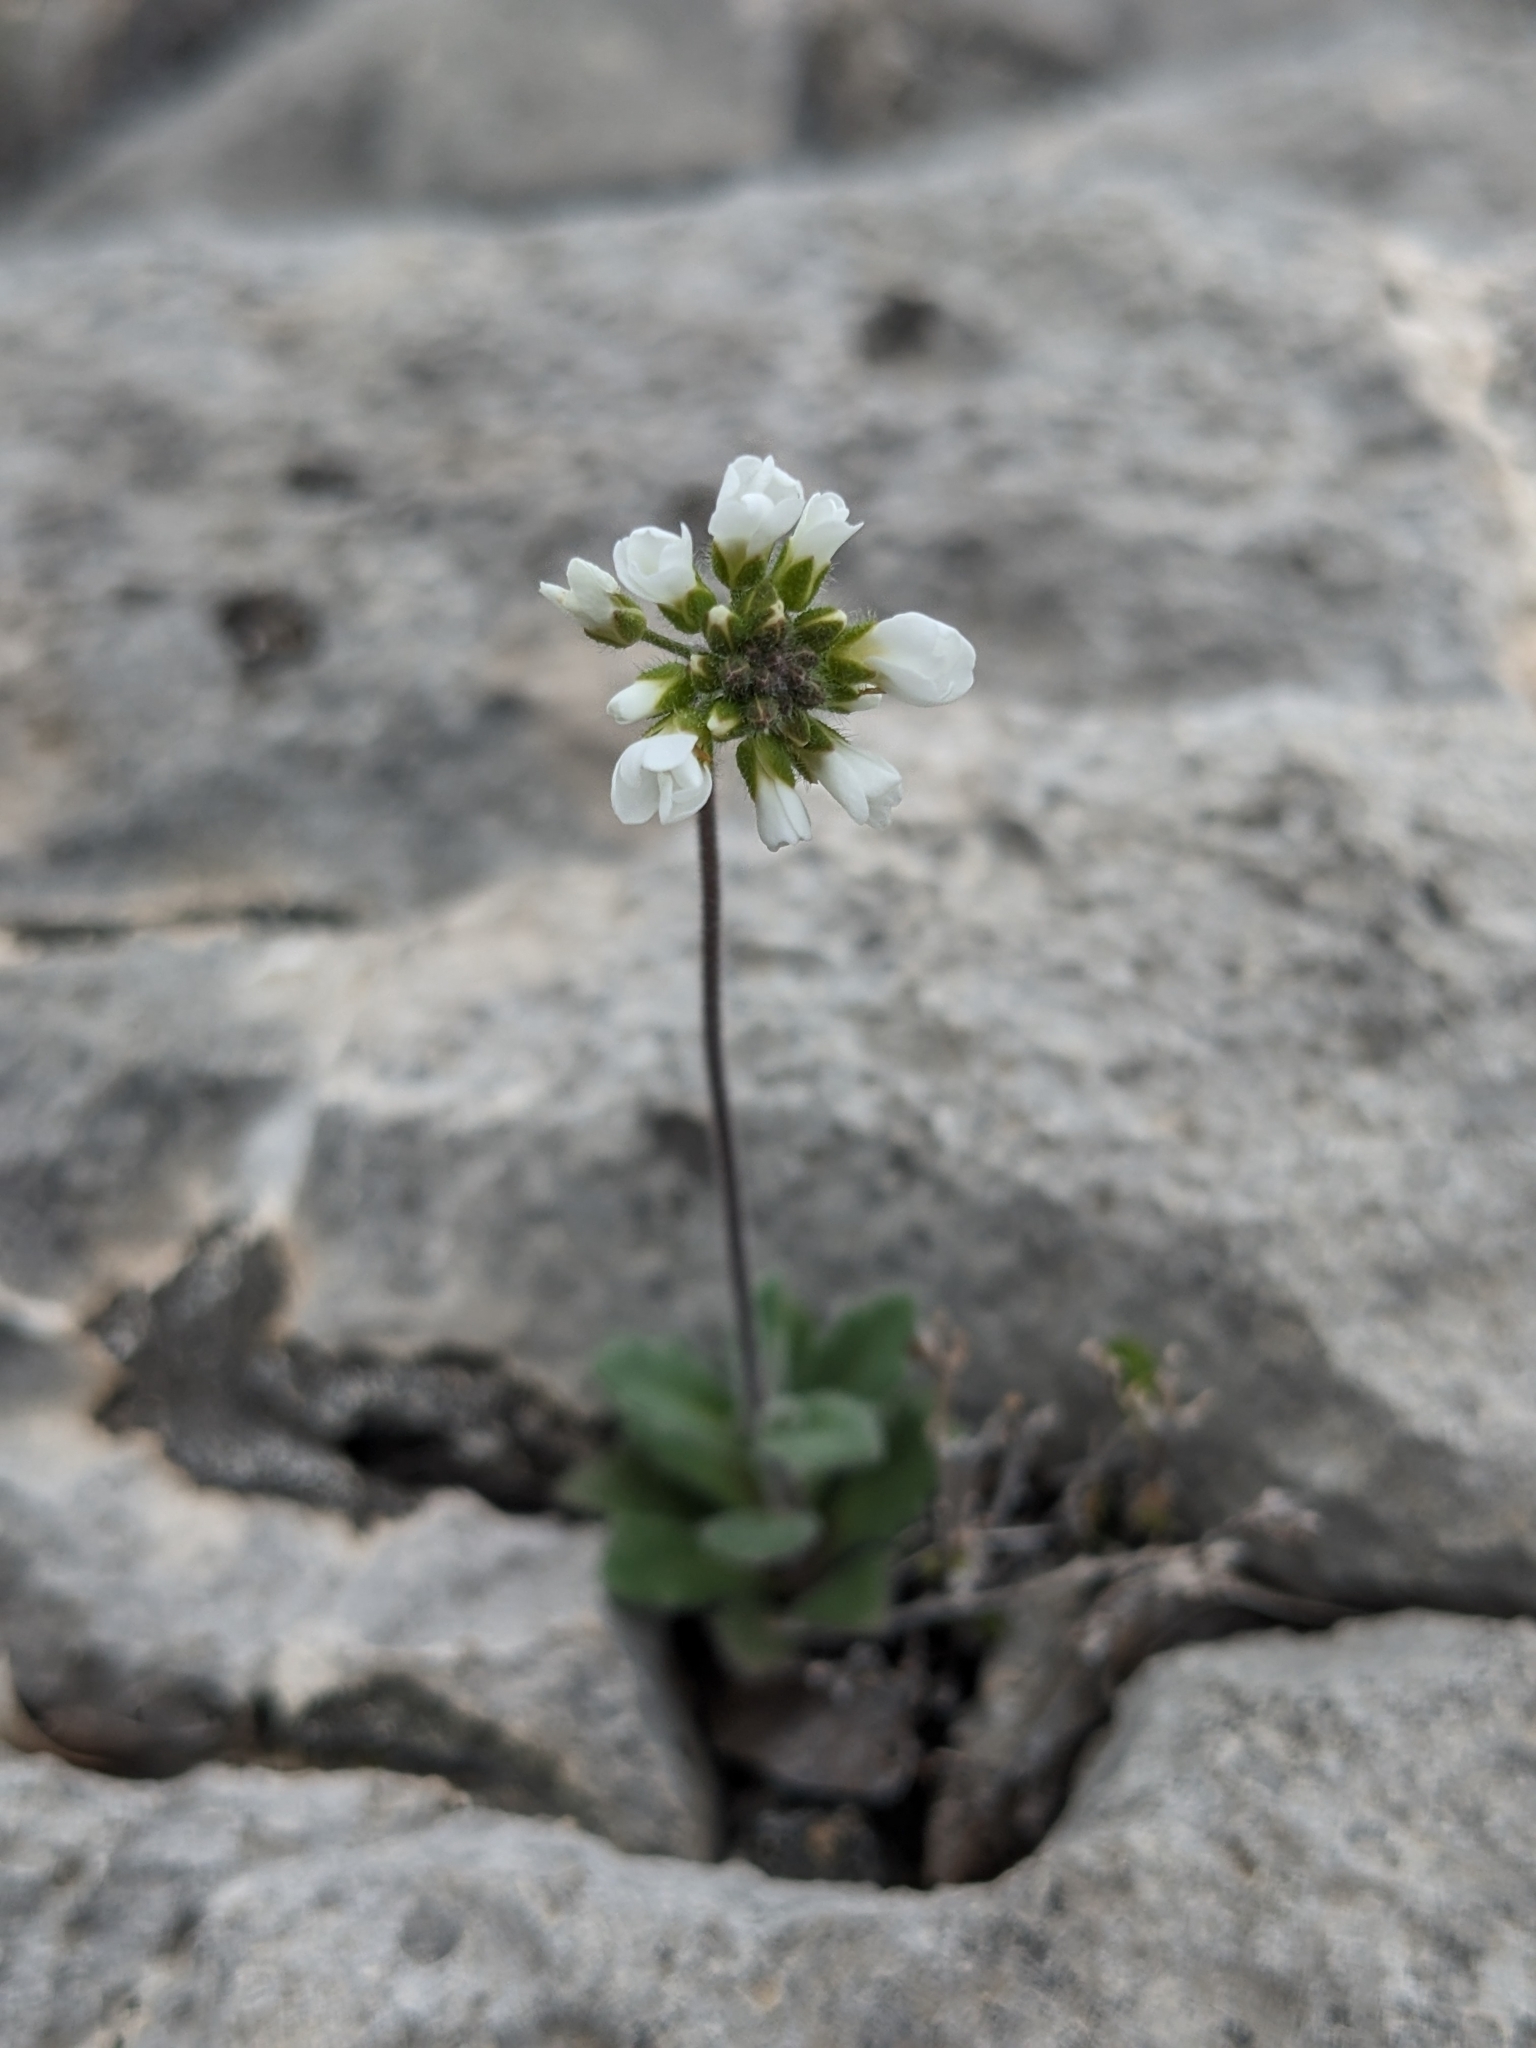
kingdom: Plantae
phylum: Tracheophyta
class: Magnoliopsida
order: Brassicales
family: Brassicaceae
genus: Tomostima
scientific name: Tomostima cuneifolia
